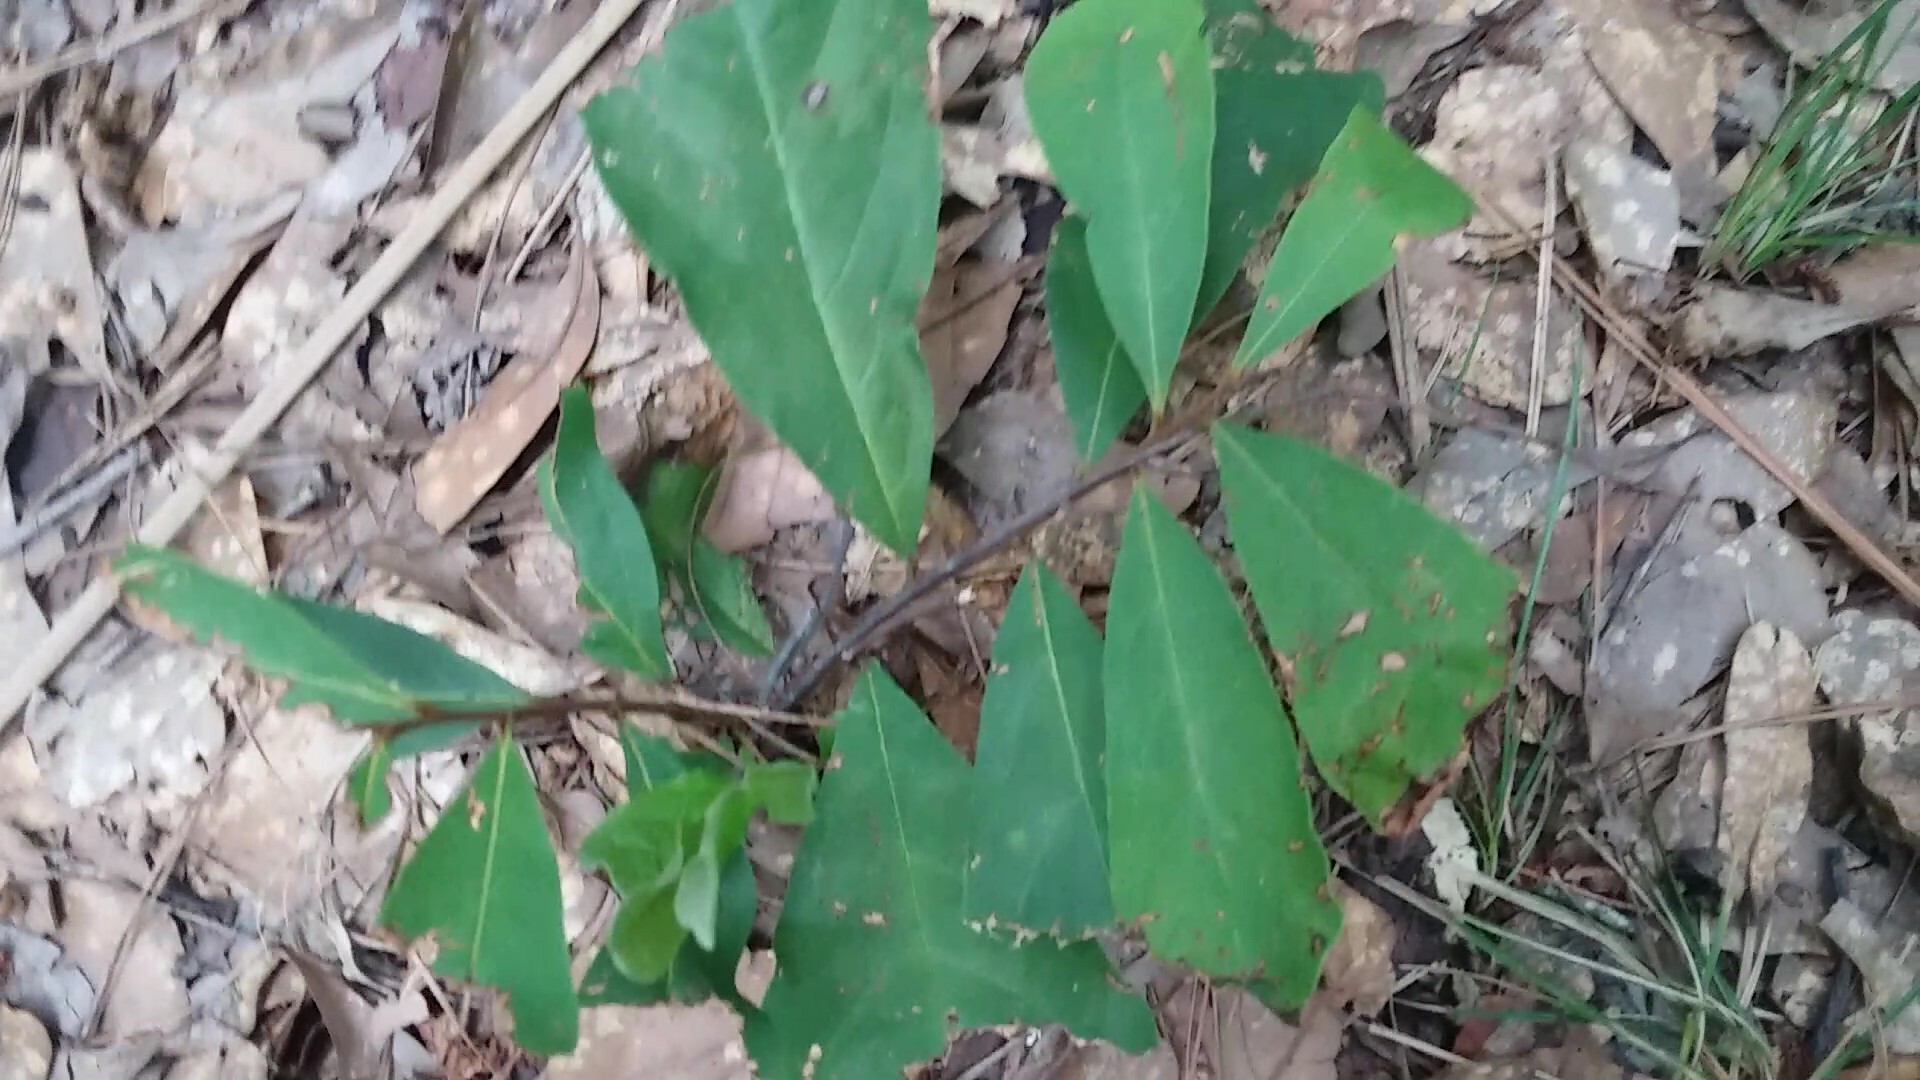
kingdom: Plantae
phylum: Tracheophyta
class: Magnoliopsida
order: Magnoliales
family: Annonaceae
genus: Asimina
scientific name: Asimina parviflora
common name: Dwarf pawpaw
